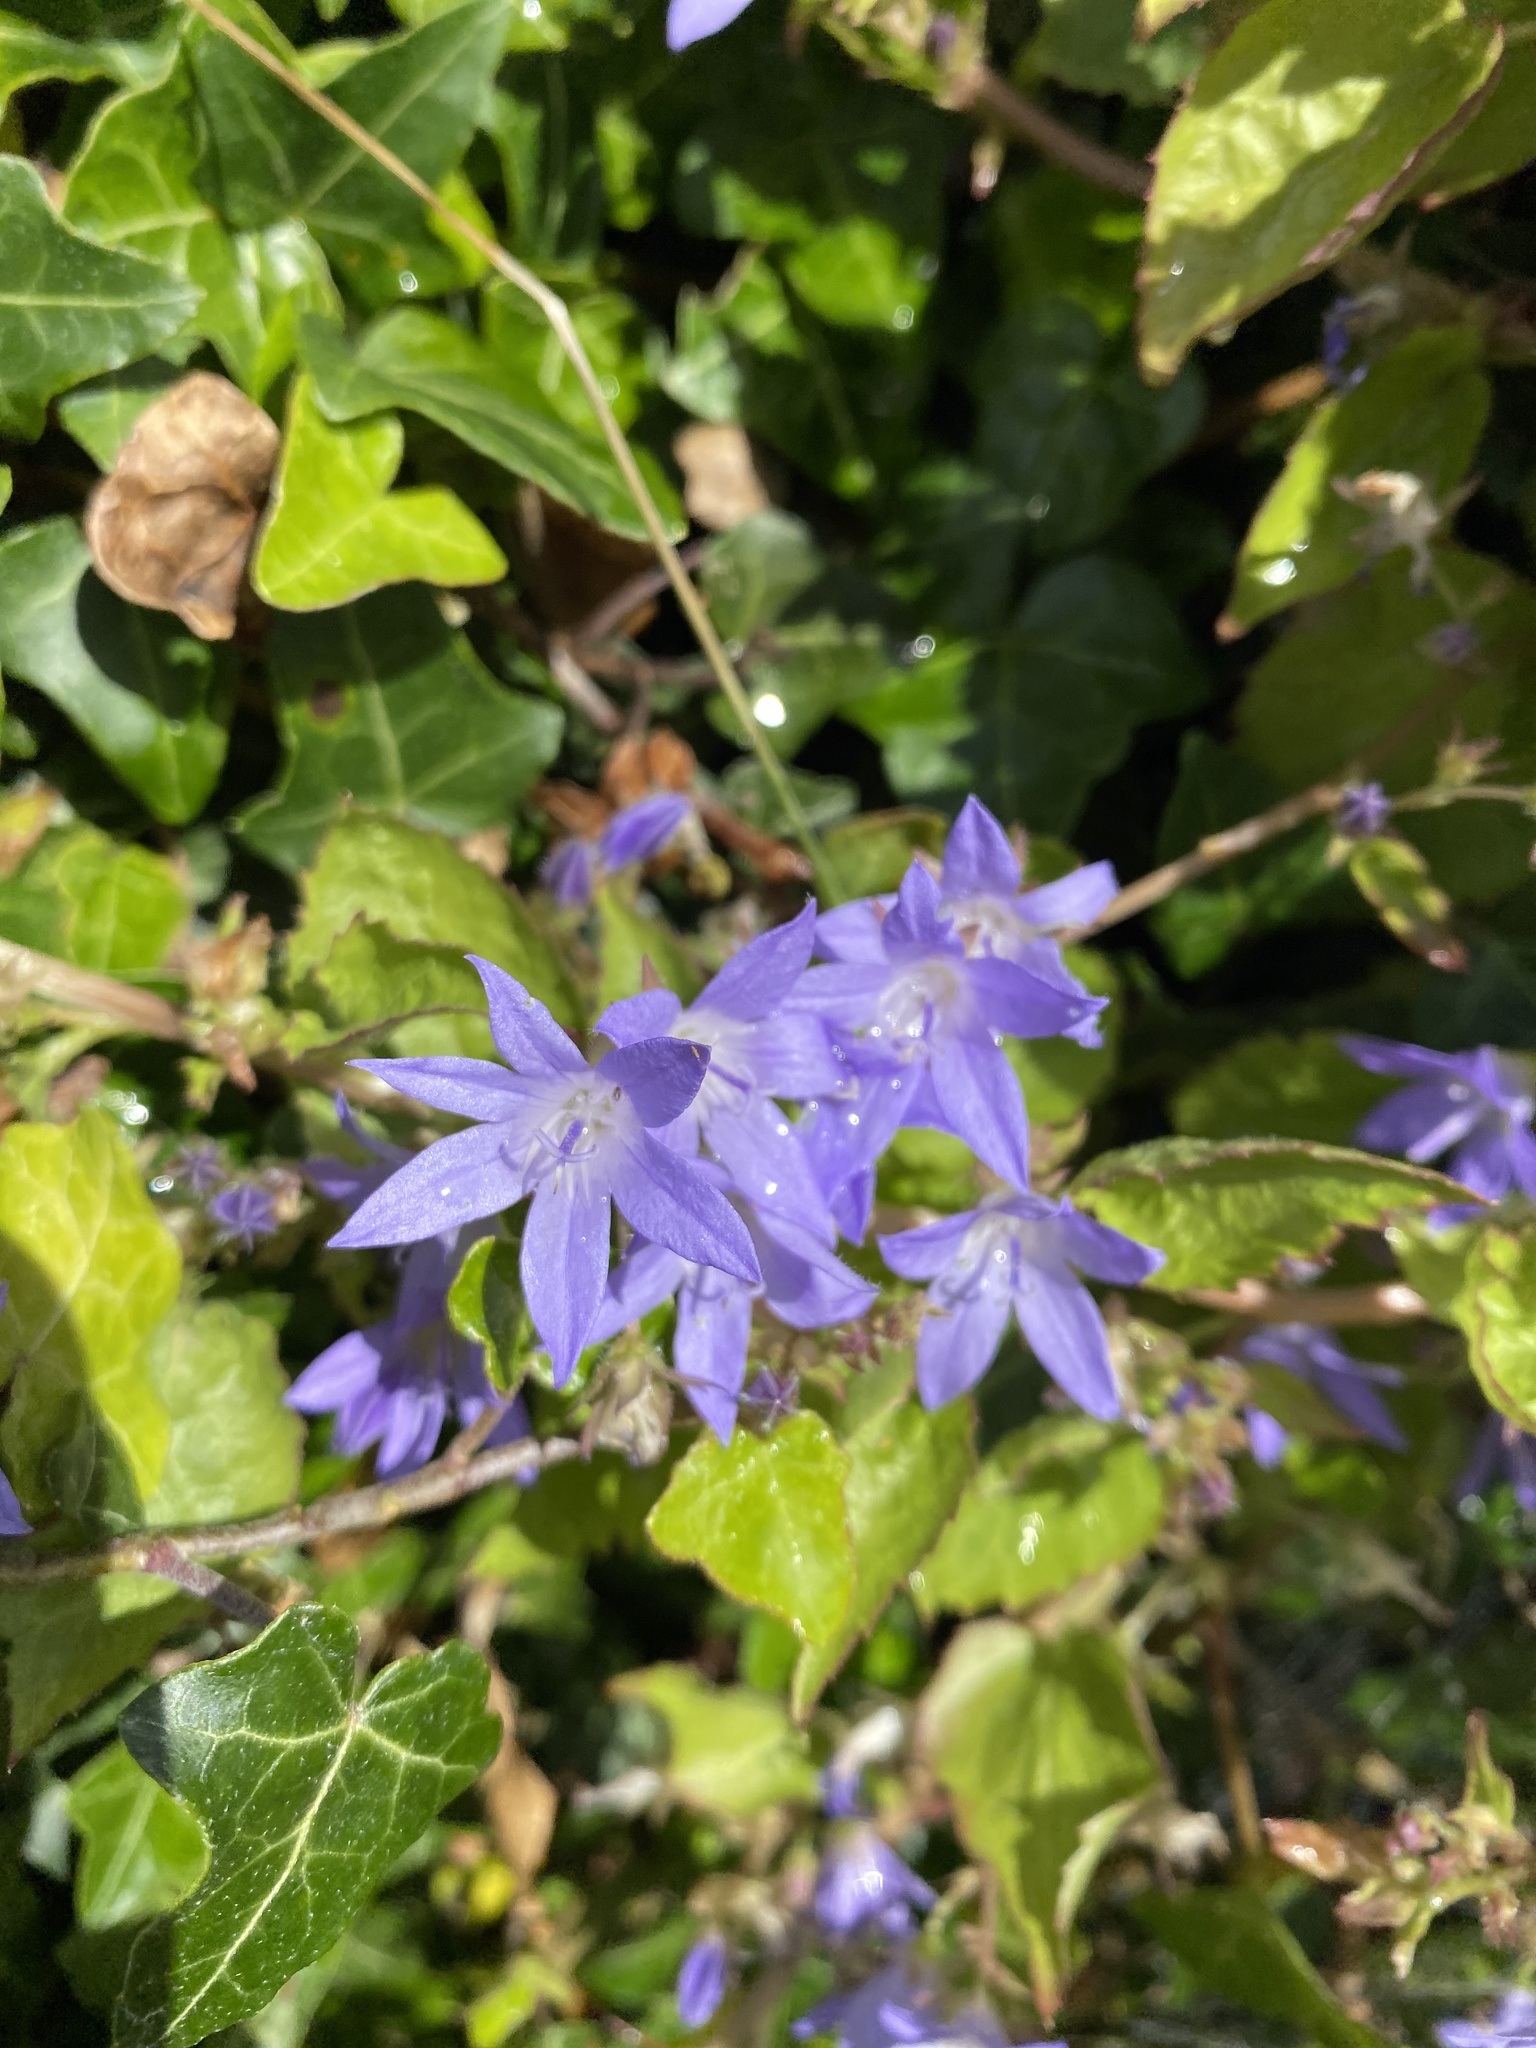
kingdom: Plantae
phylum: Tracheophyta
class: Magnoliopsida
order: Asterales
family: Campanulaceae
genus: Campanula
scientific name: Campanula poscharskyana
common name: Trailing bellflower
